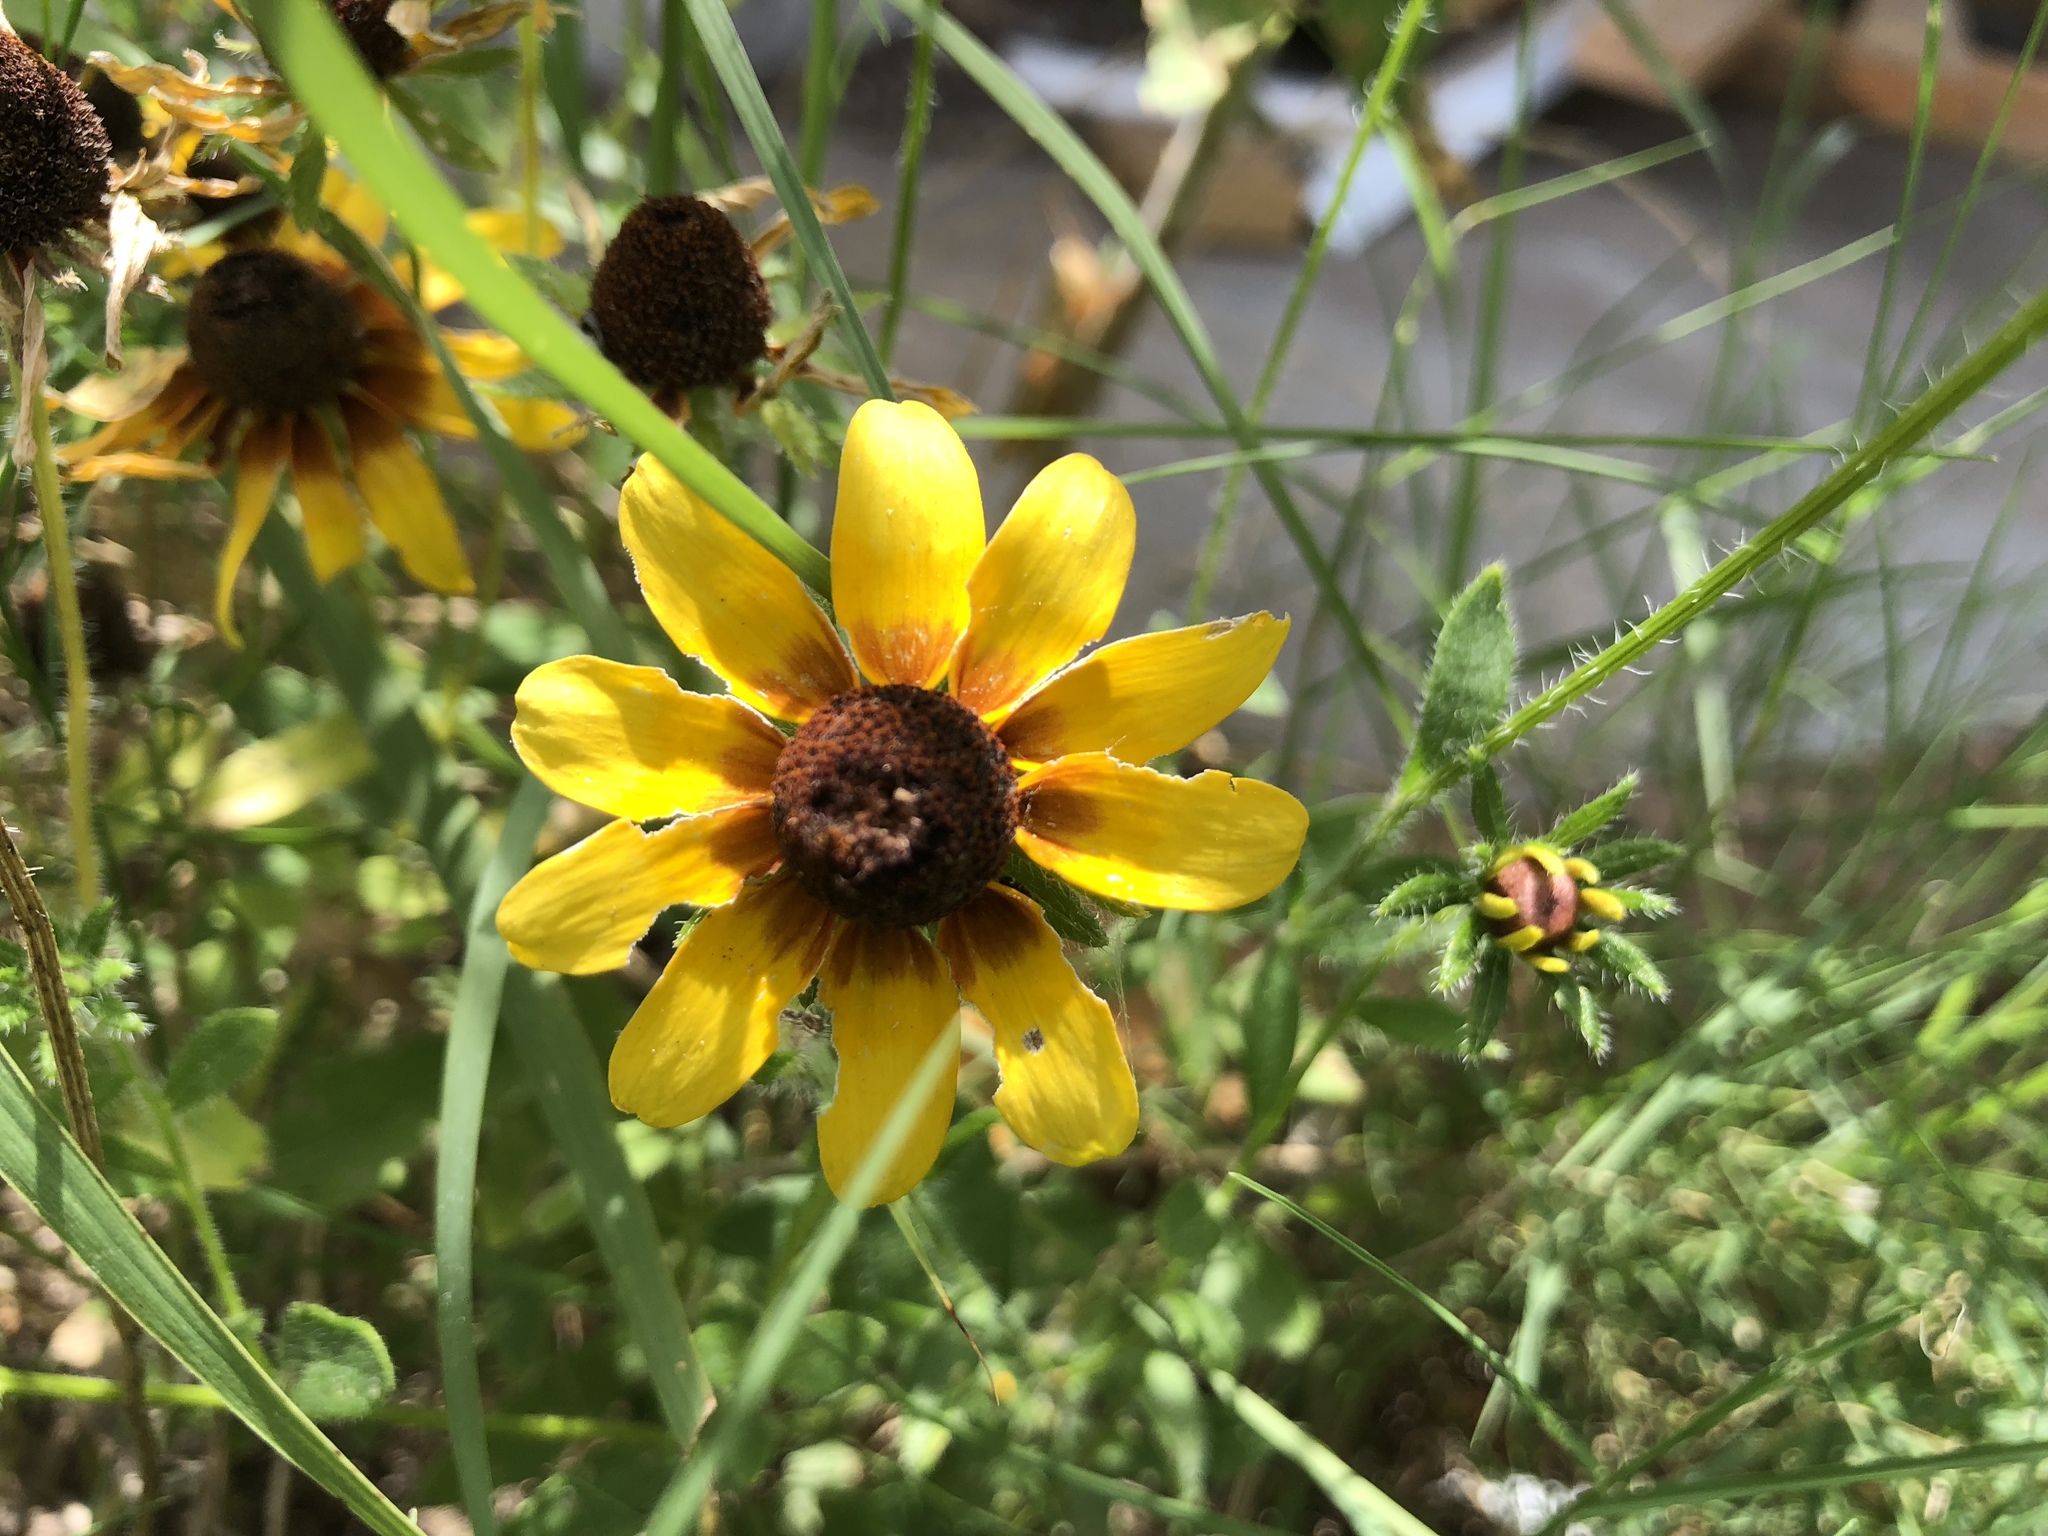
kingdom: Plantae
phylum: Tracheophyta
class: Magnoliopsida
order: Asterales
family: Asteraceae
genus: Rudbeckia
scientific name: Rudbeckia hirta
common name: Black-eyed-susan
